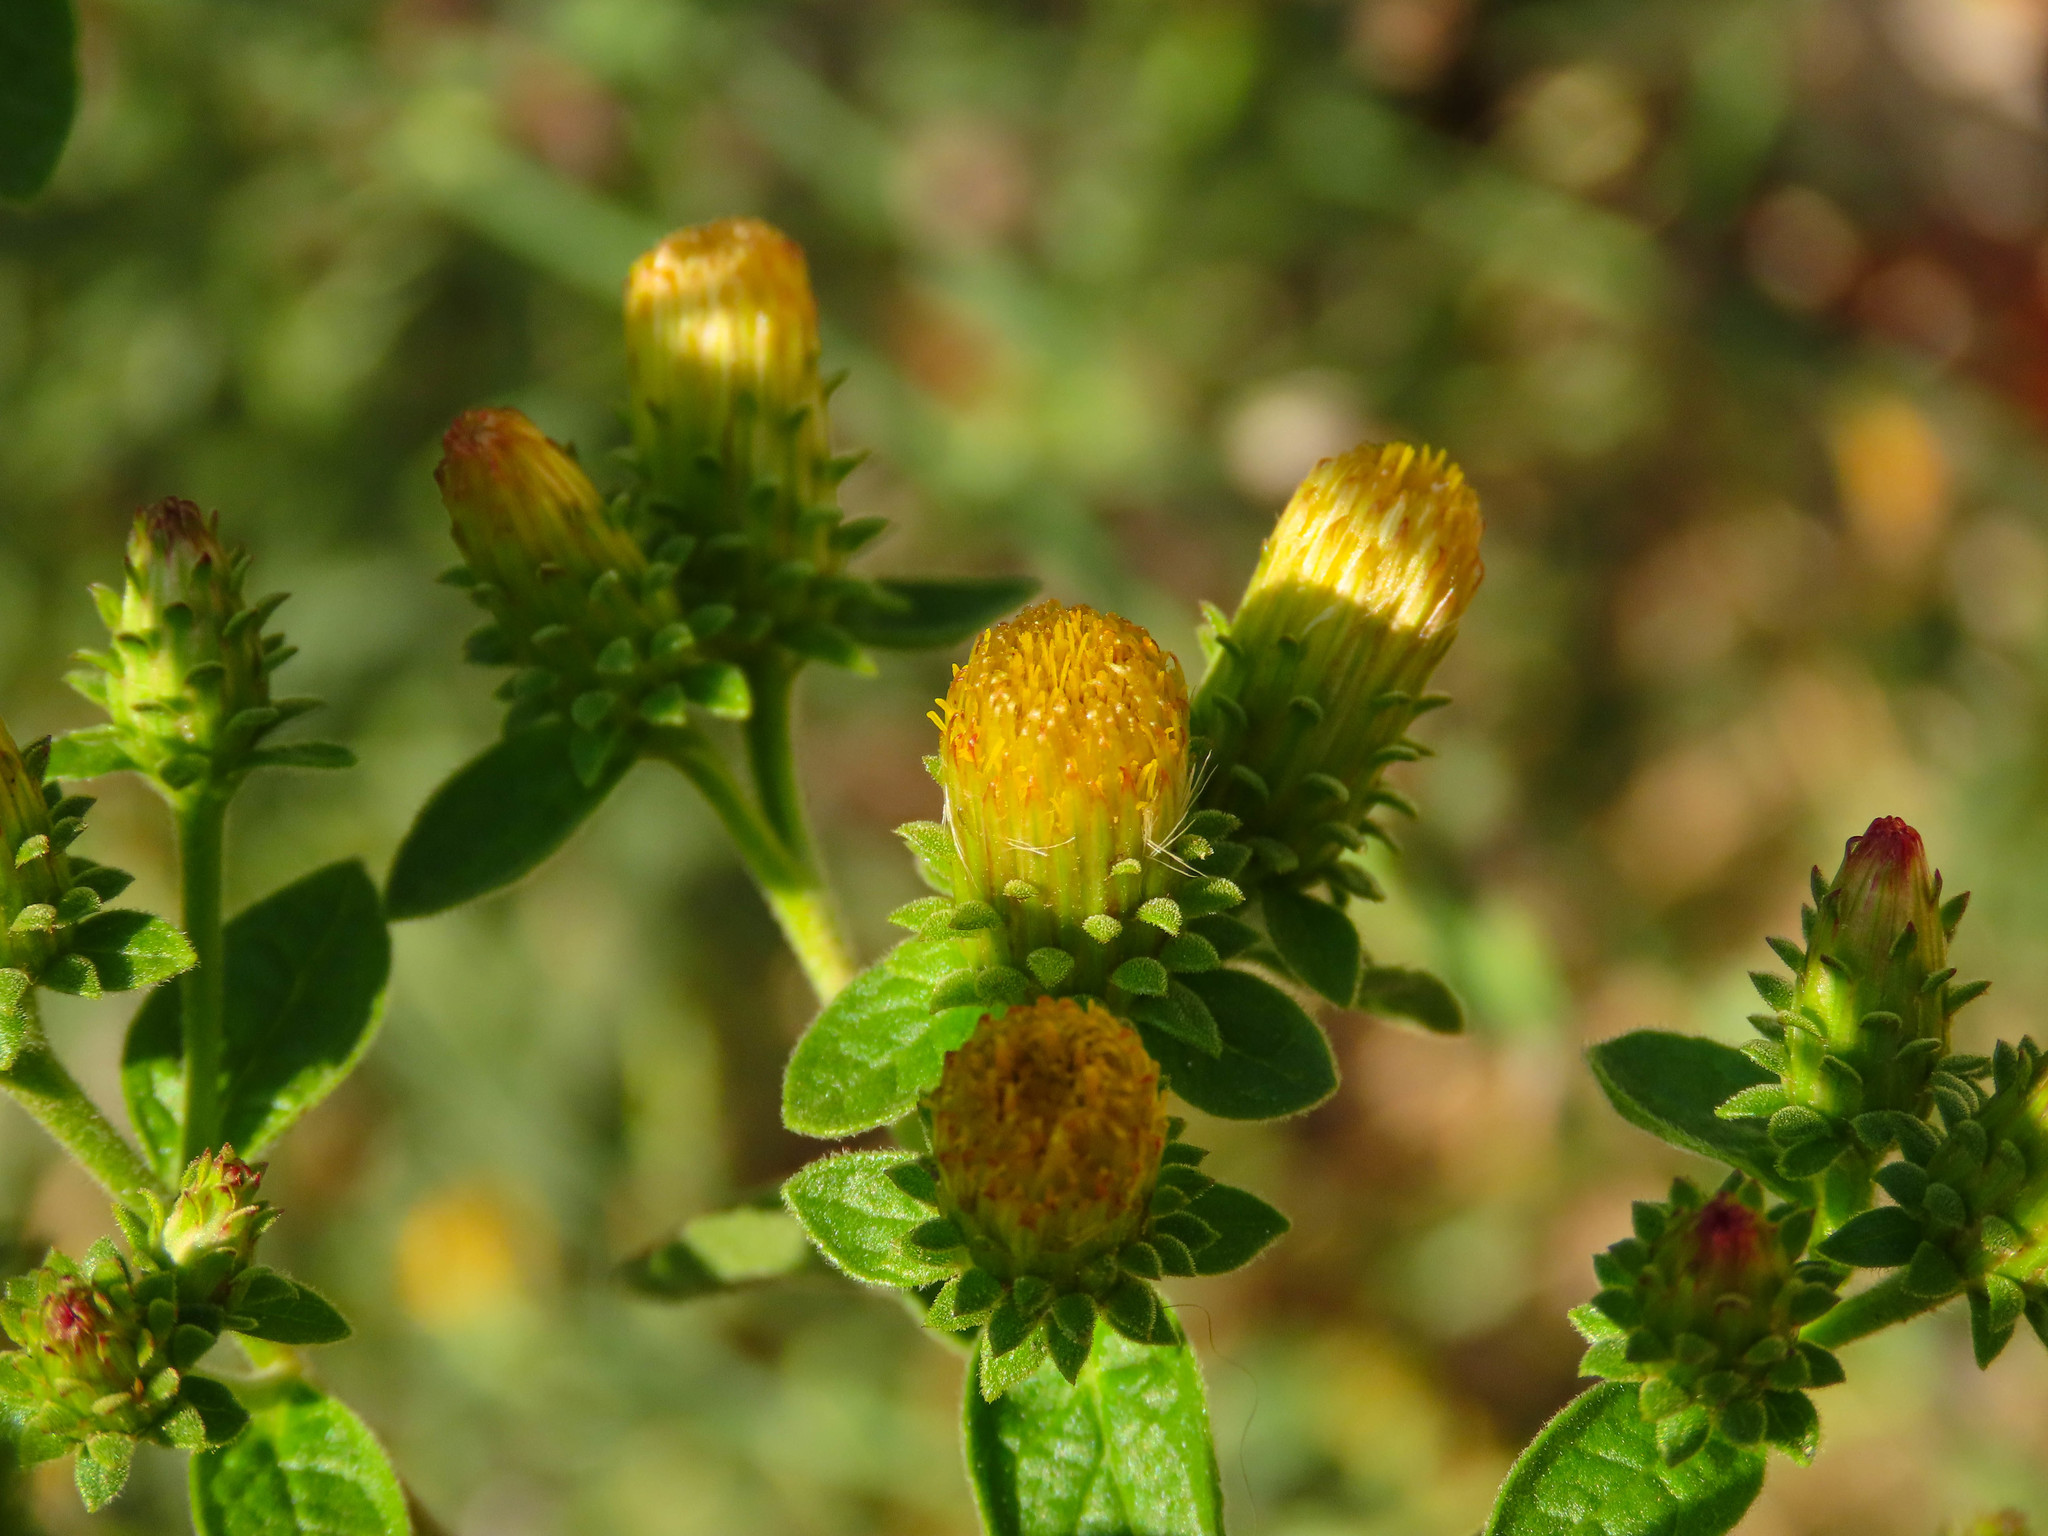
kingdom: Plantae
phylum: Tracheophyta
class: Magnoliopsida
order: Asterales
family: Asteraceae
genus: Pentanema
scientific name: Pentanema squarrosum
